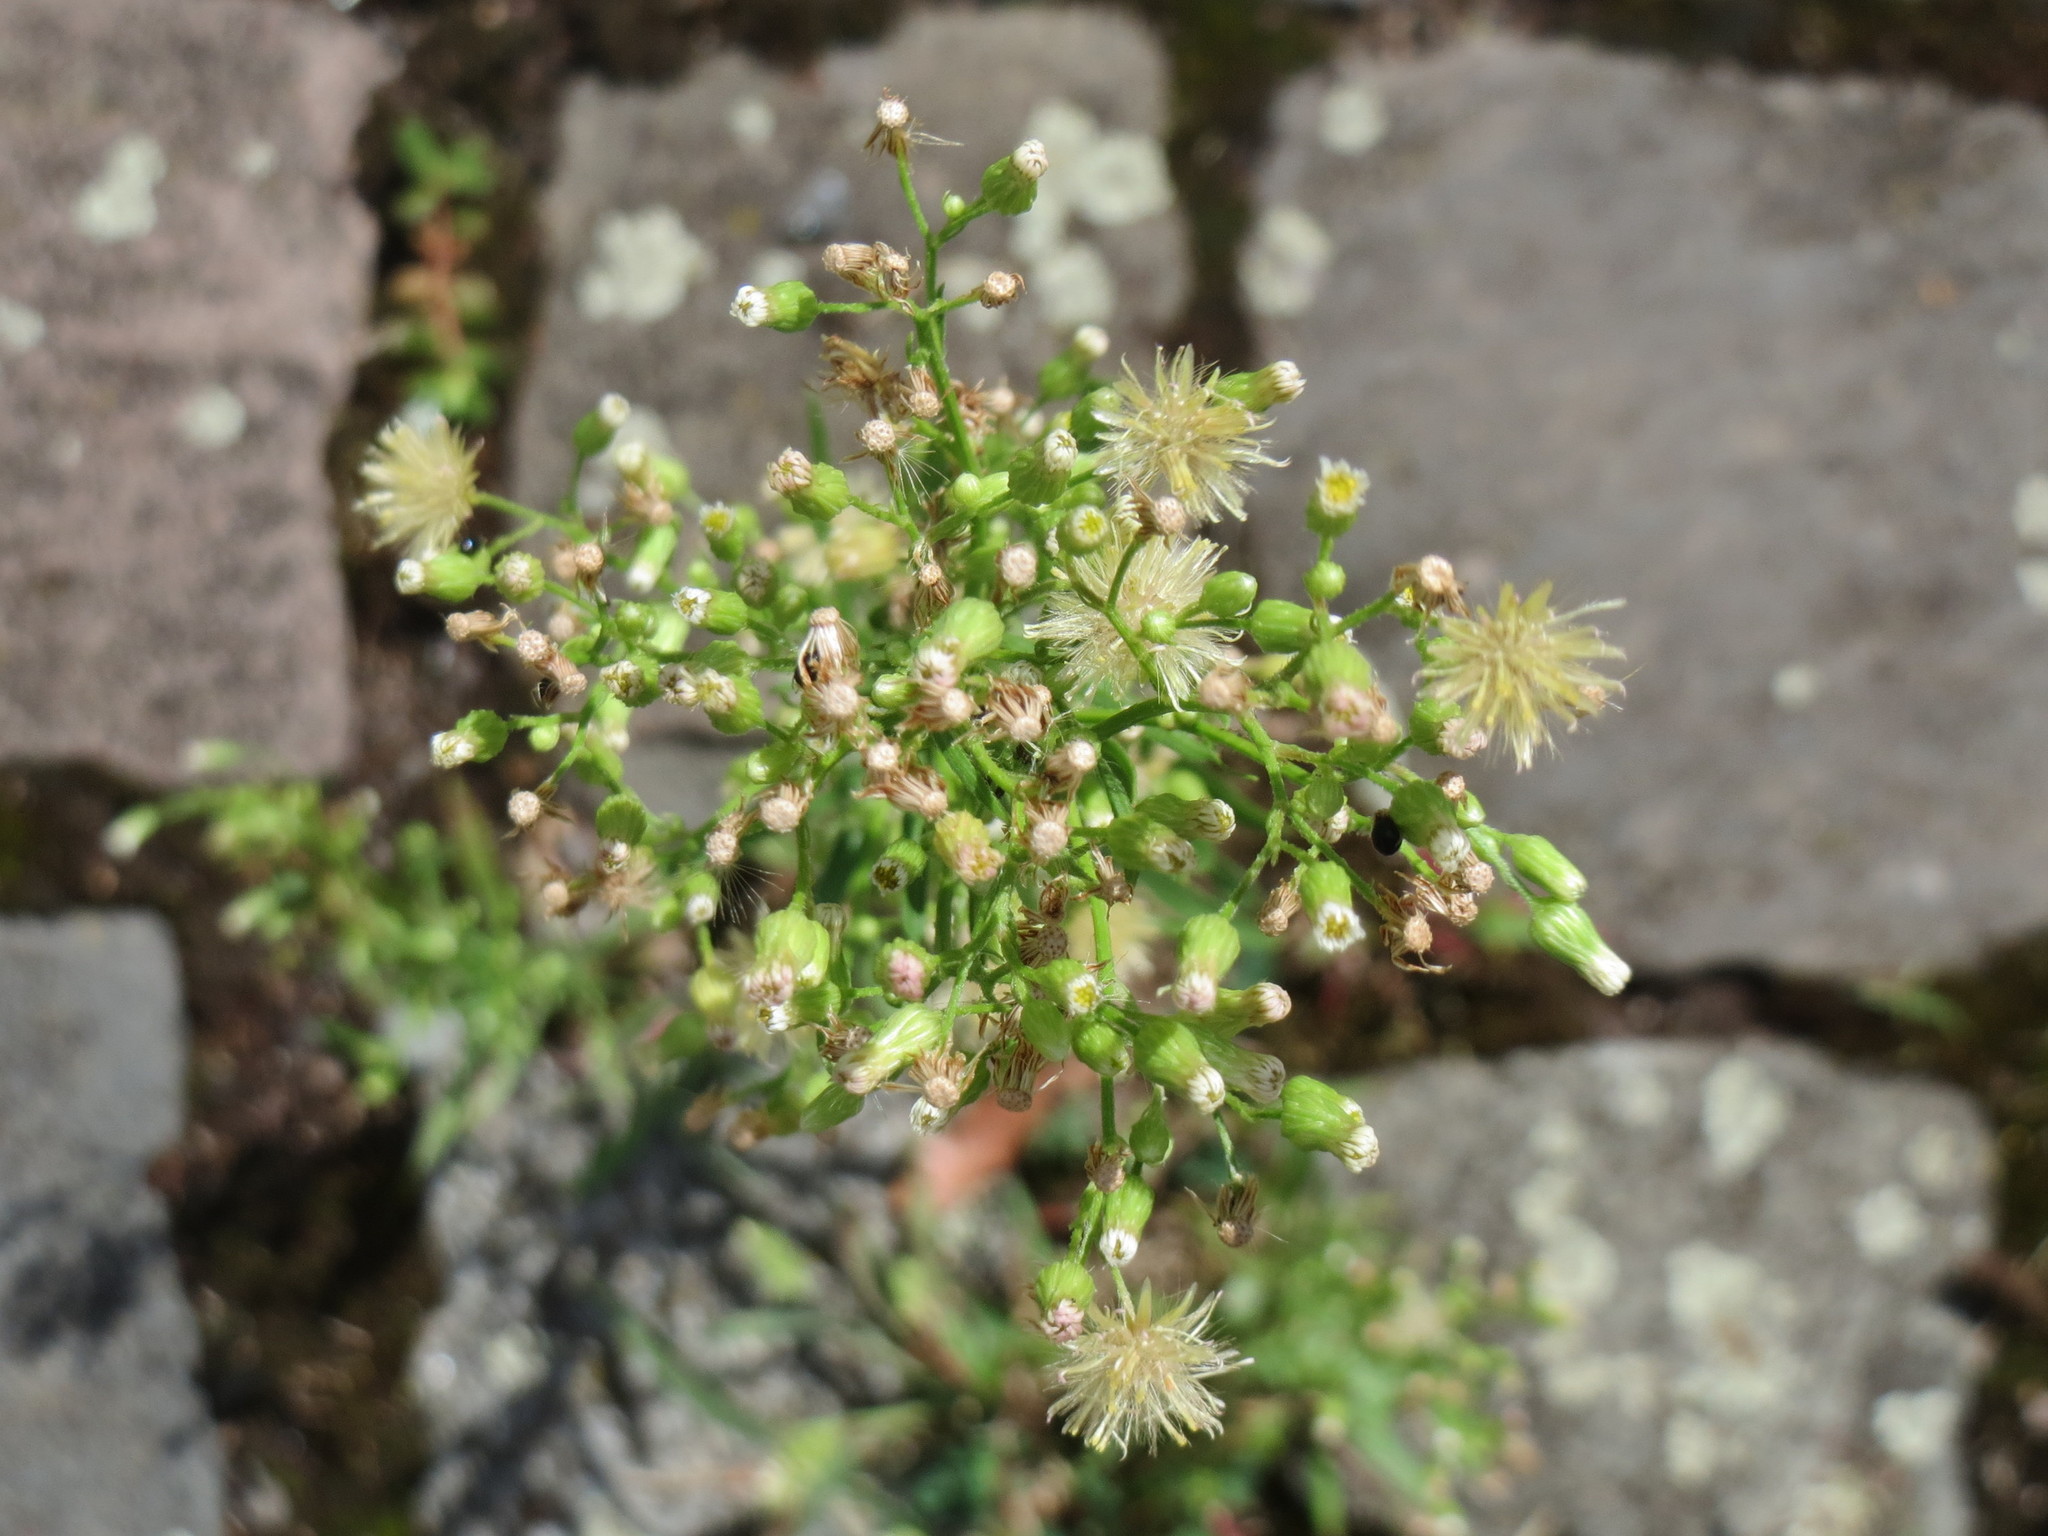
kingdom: Plantae
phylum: Tracheophyta
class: Magnoliopsida
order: Asterales
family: Asteraceae
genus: Erigeron
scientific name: Erigeron canadensis
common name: Canadian fleabane
